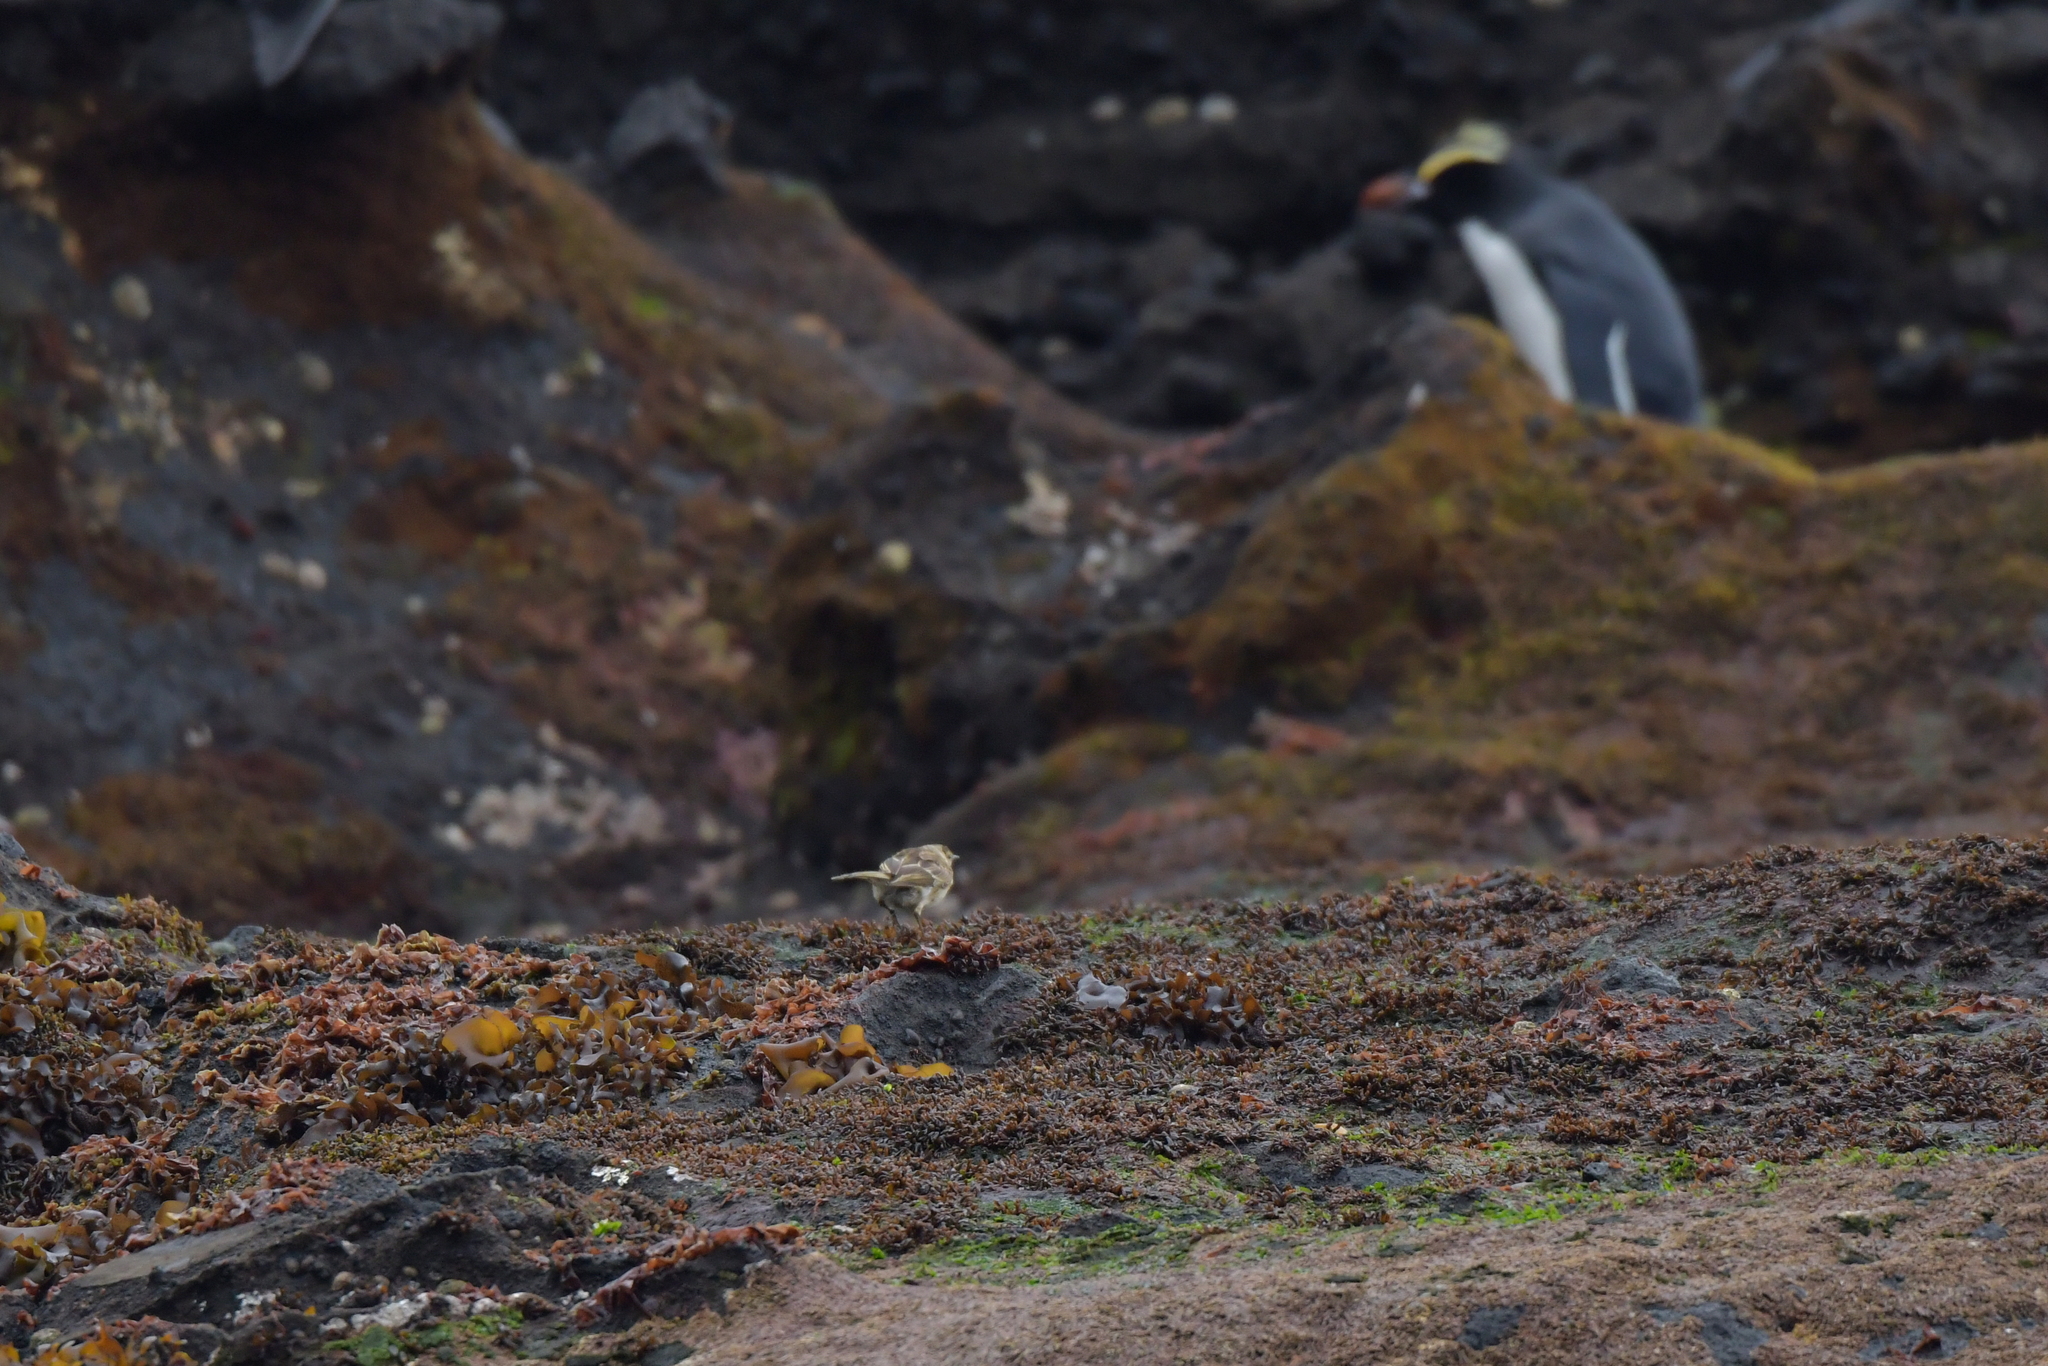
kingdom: Animalia
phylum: Chordata
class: Aves
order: Passeriformes
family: Motacillidae
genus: Anthus
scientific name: Anthus novaeseelandiae
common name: New zealand pipit
